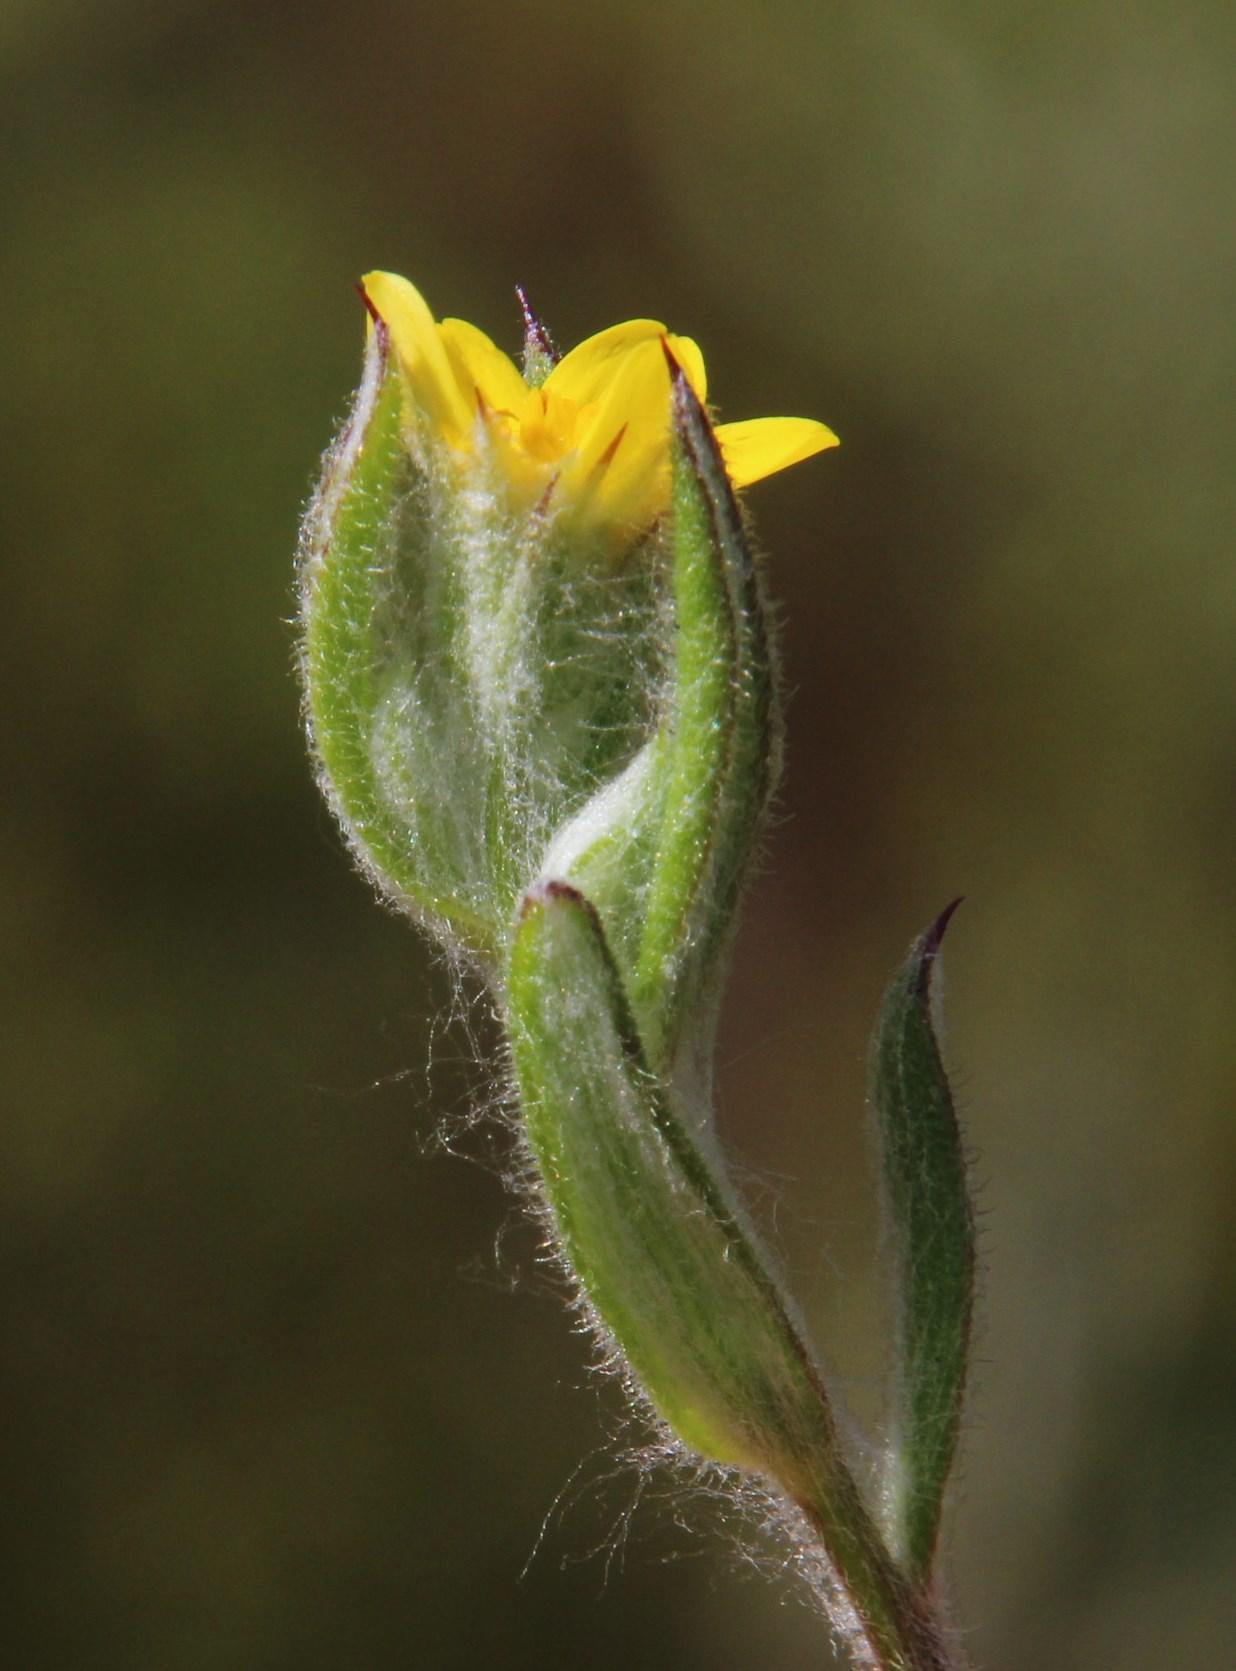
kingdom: Plantae
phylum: Tracheophyta
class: Magnoliopsida
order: Asterales
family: Asteraceae
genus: Osteospermum
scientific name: Osteospermum hispidum
